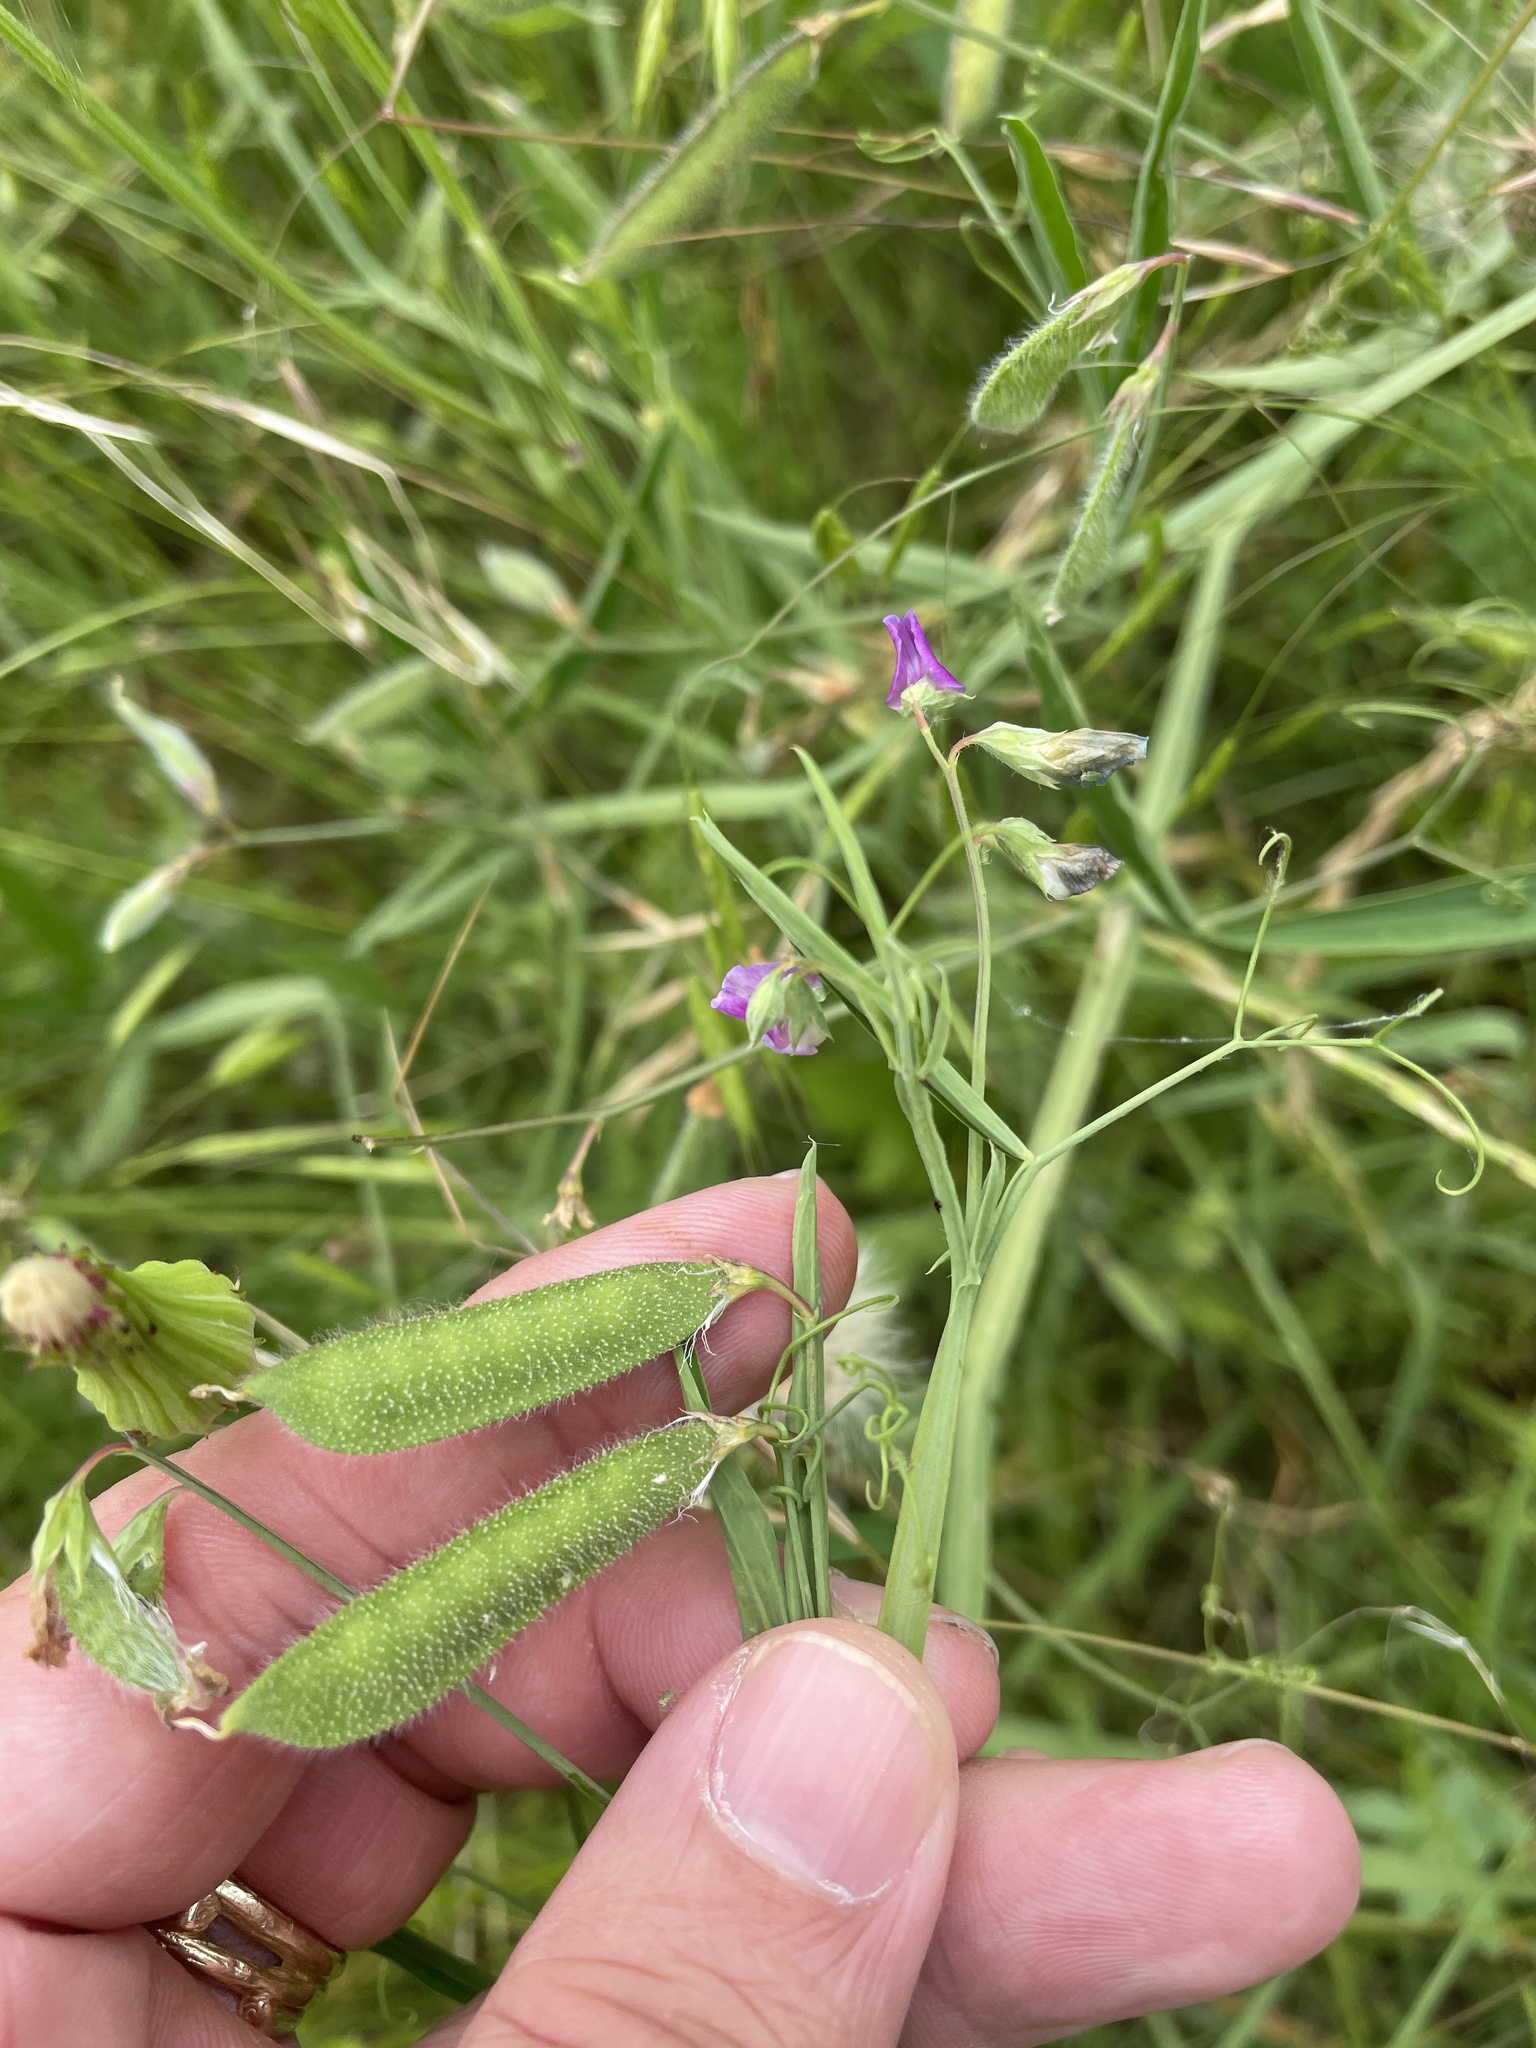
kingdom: Plantae
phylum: Tracheophyta
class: Magnoliopsida
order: Fabales
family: Fabaceae
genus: Lathyrus
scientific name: Lathyrus hirsutus
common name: Hairy vetchling
